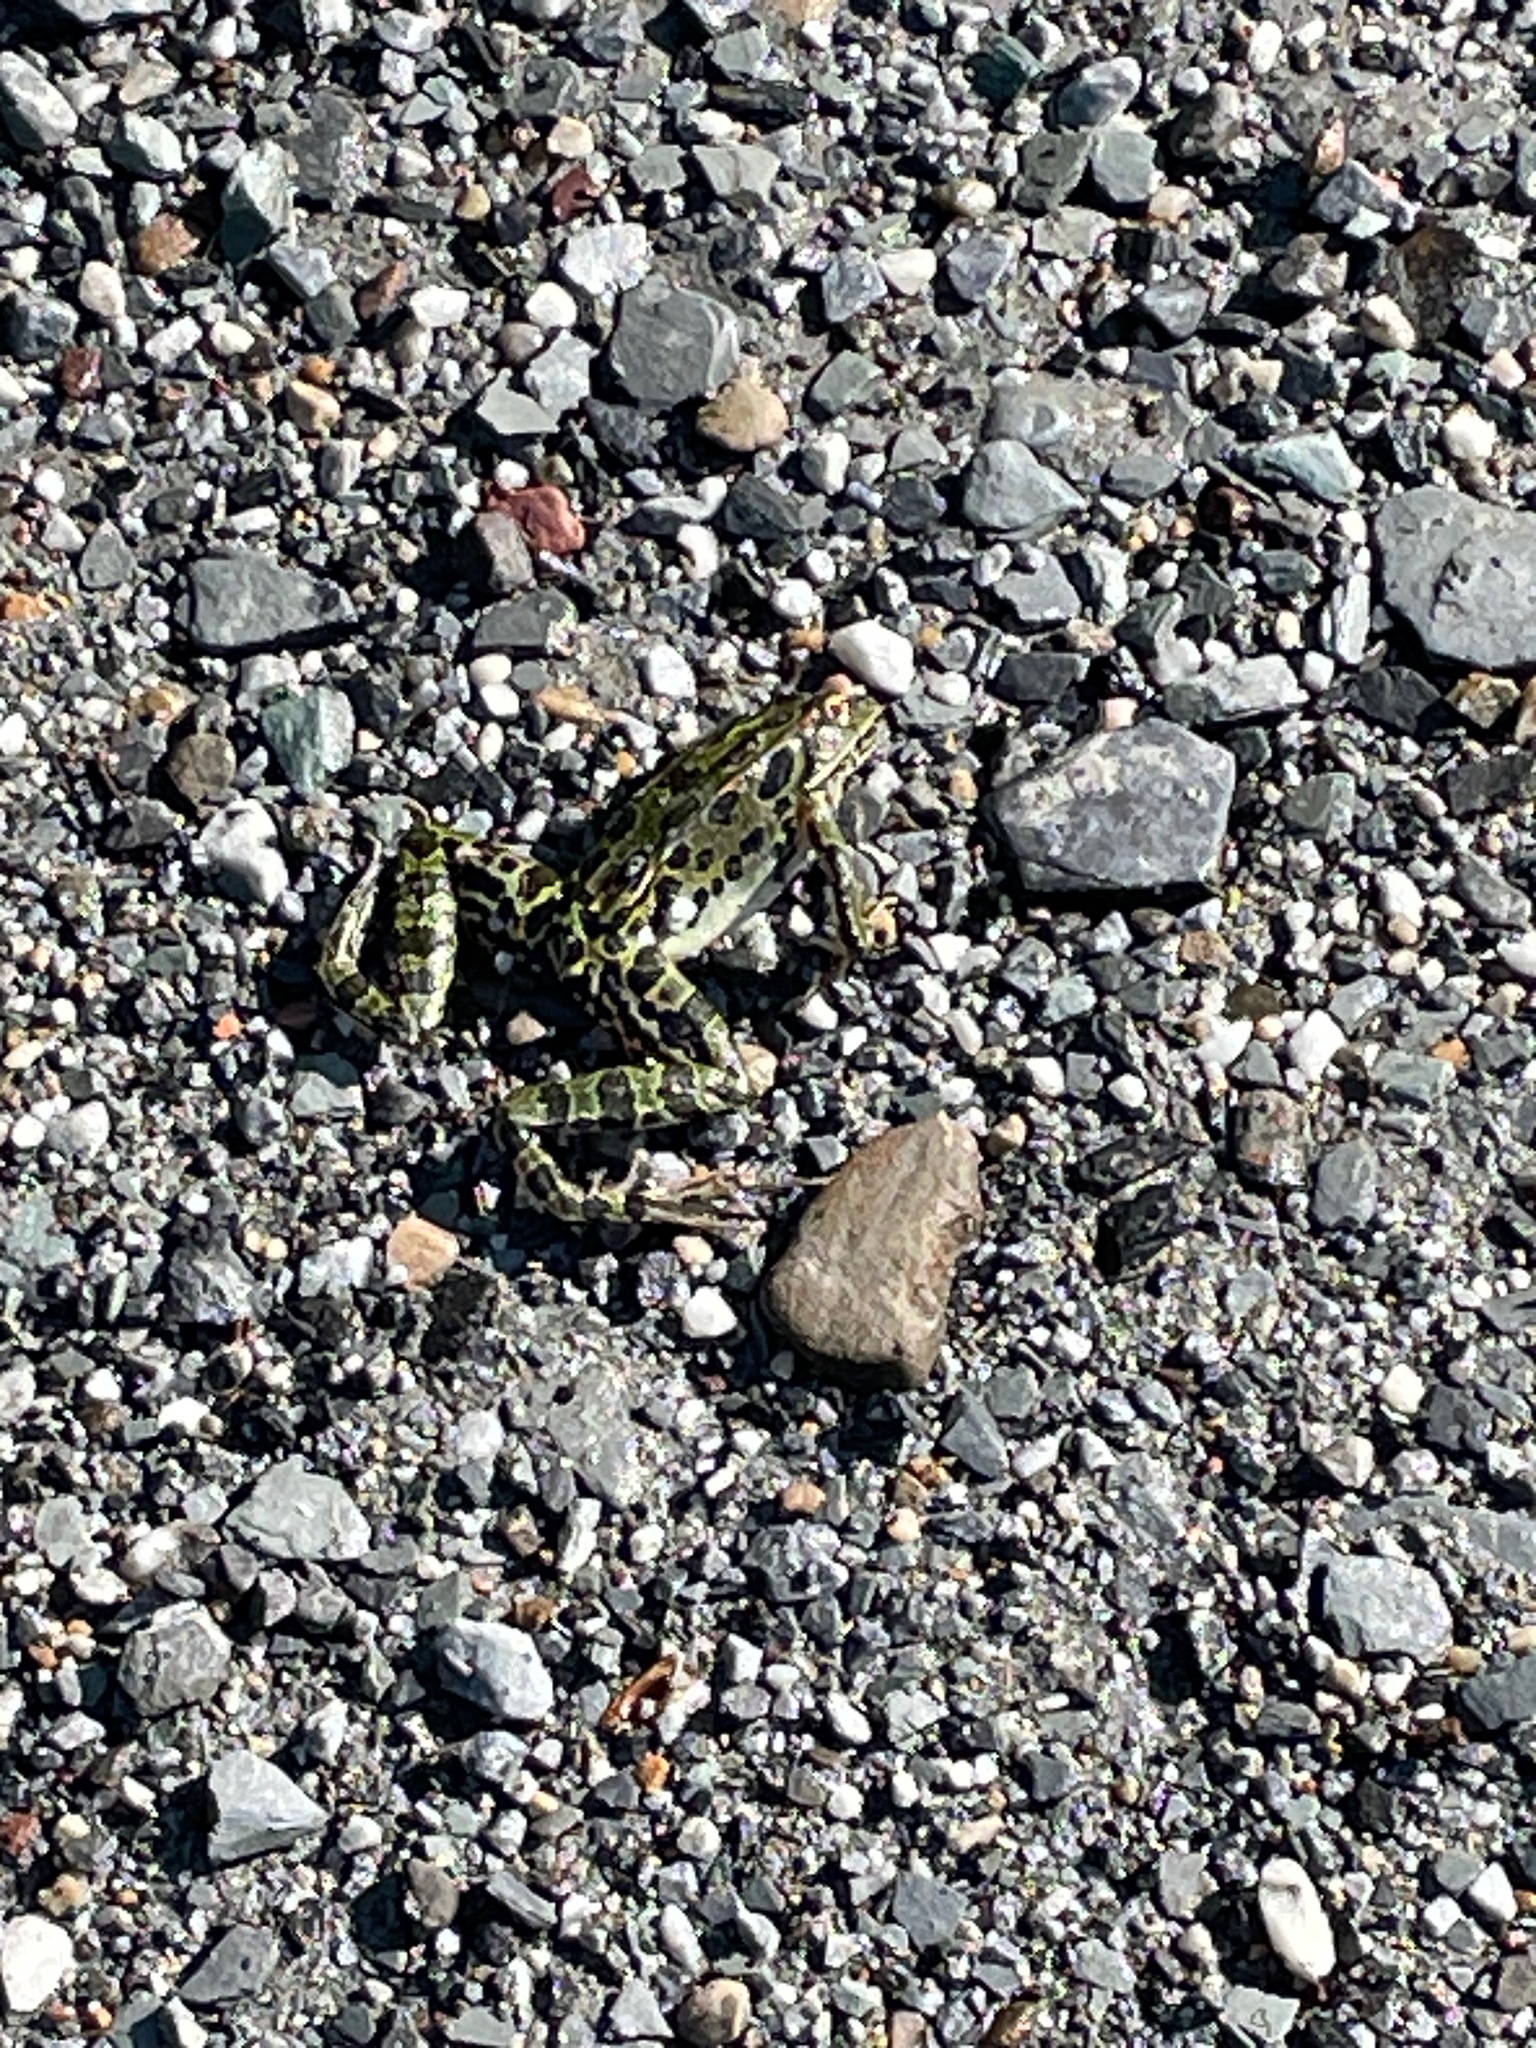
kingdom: Animalia
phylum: Chordata
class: Amphibia
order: Anura
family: Ranidae
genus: Lithobates
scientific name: Lithobates pipiens
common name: Northern leopard frog
